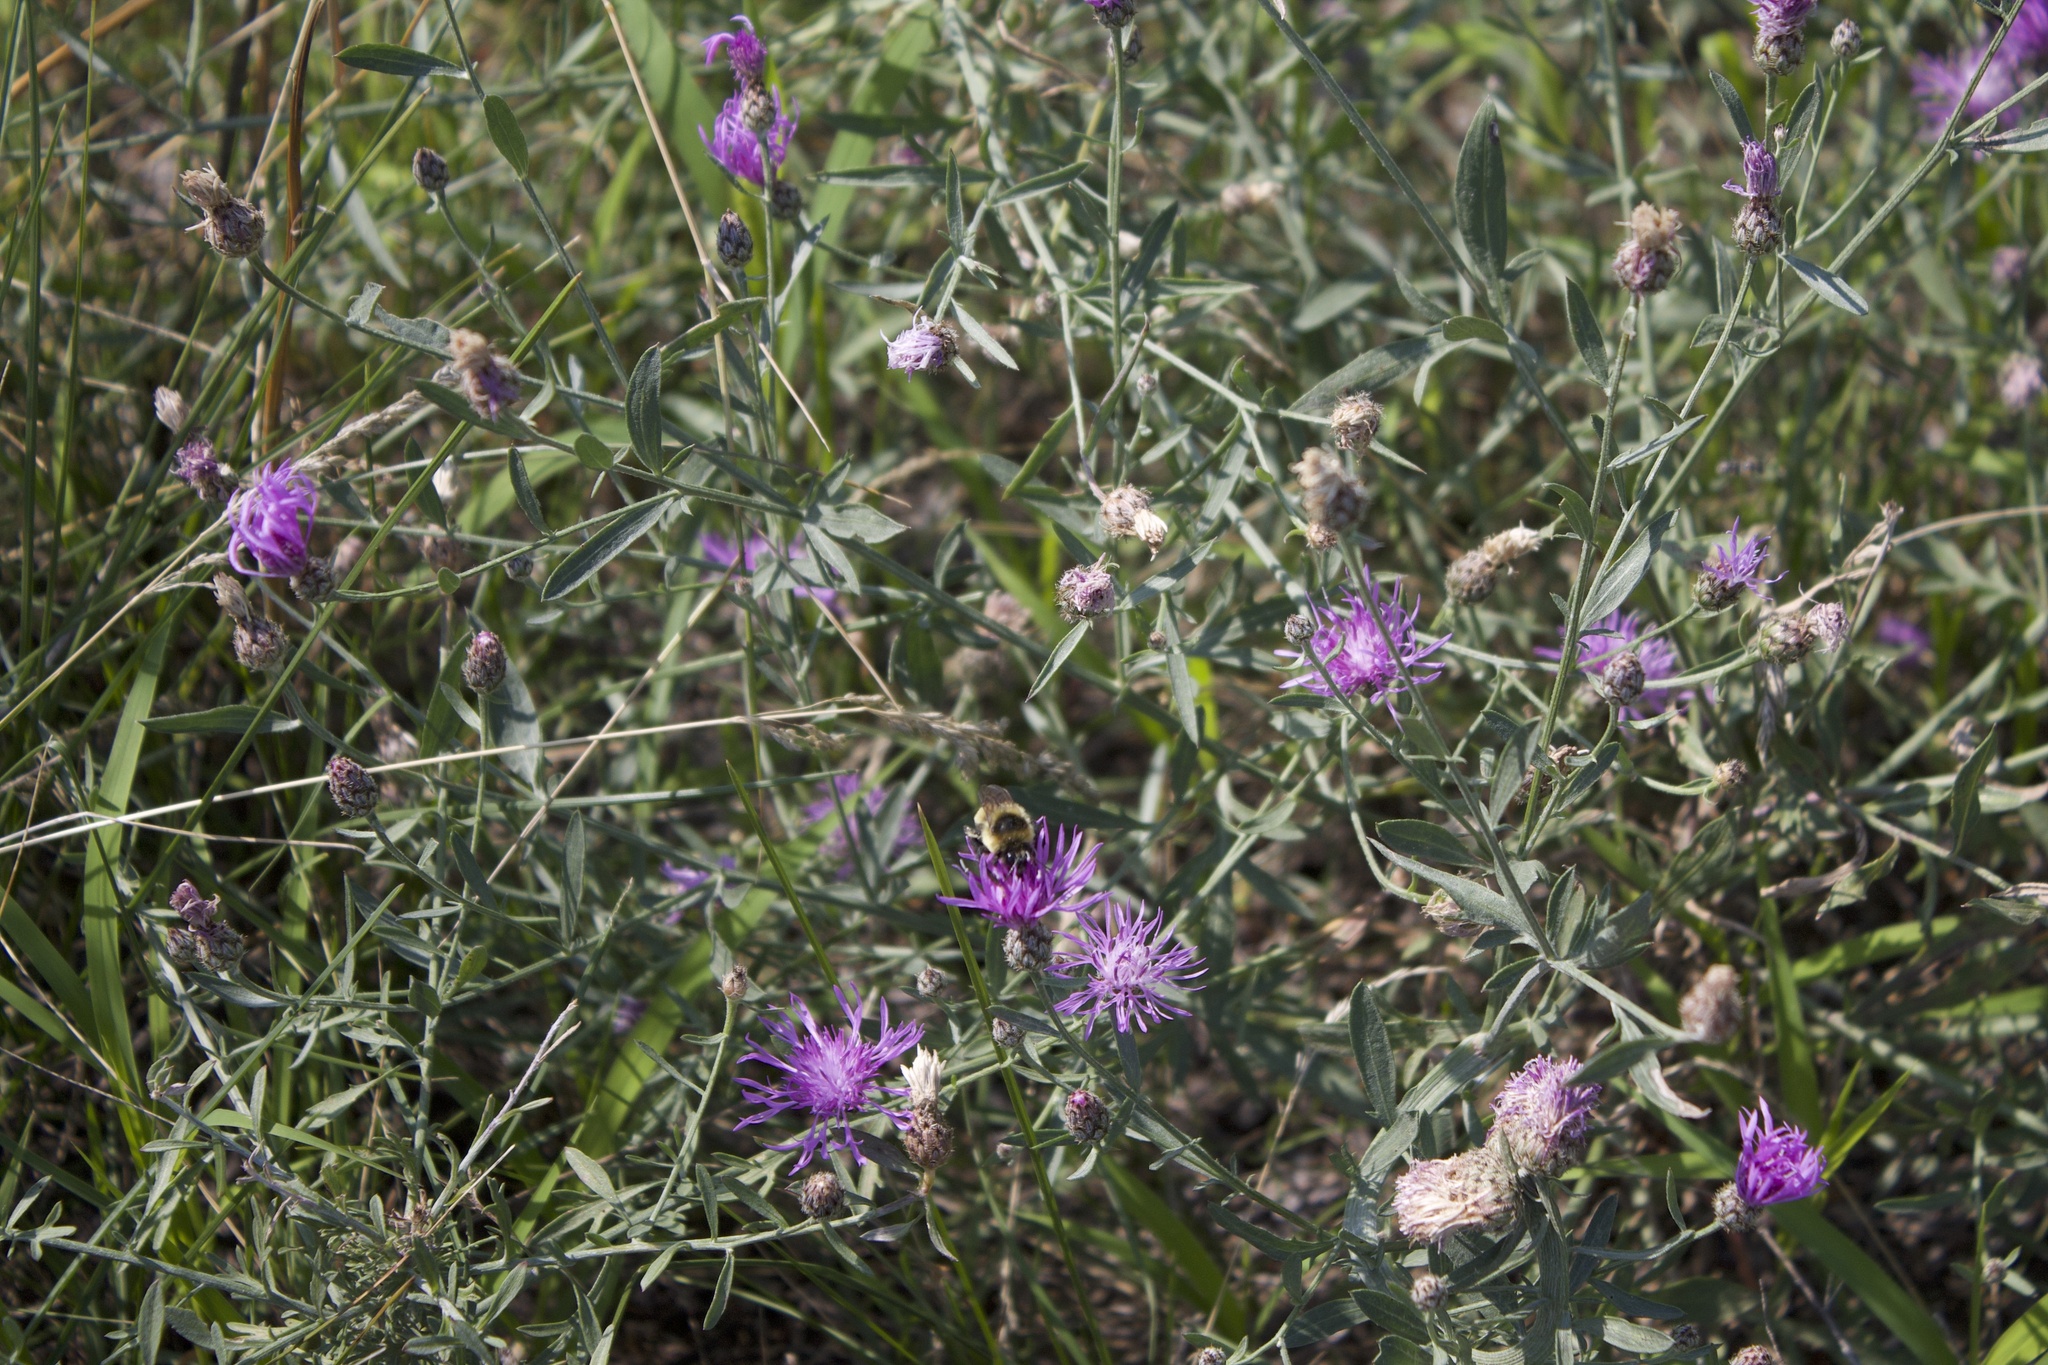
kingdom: Animalia
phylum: Arthropoda
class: Insecta
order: Hymenoptera
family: Apidae
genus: Bombus
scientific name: Bombus rufocinctus
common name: Red-belted bumble bee
